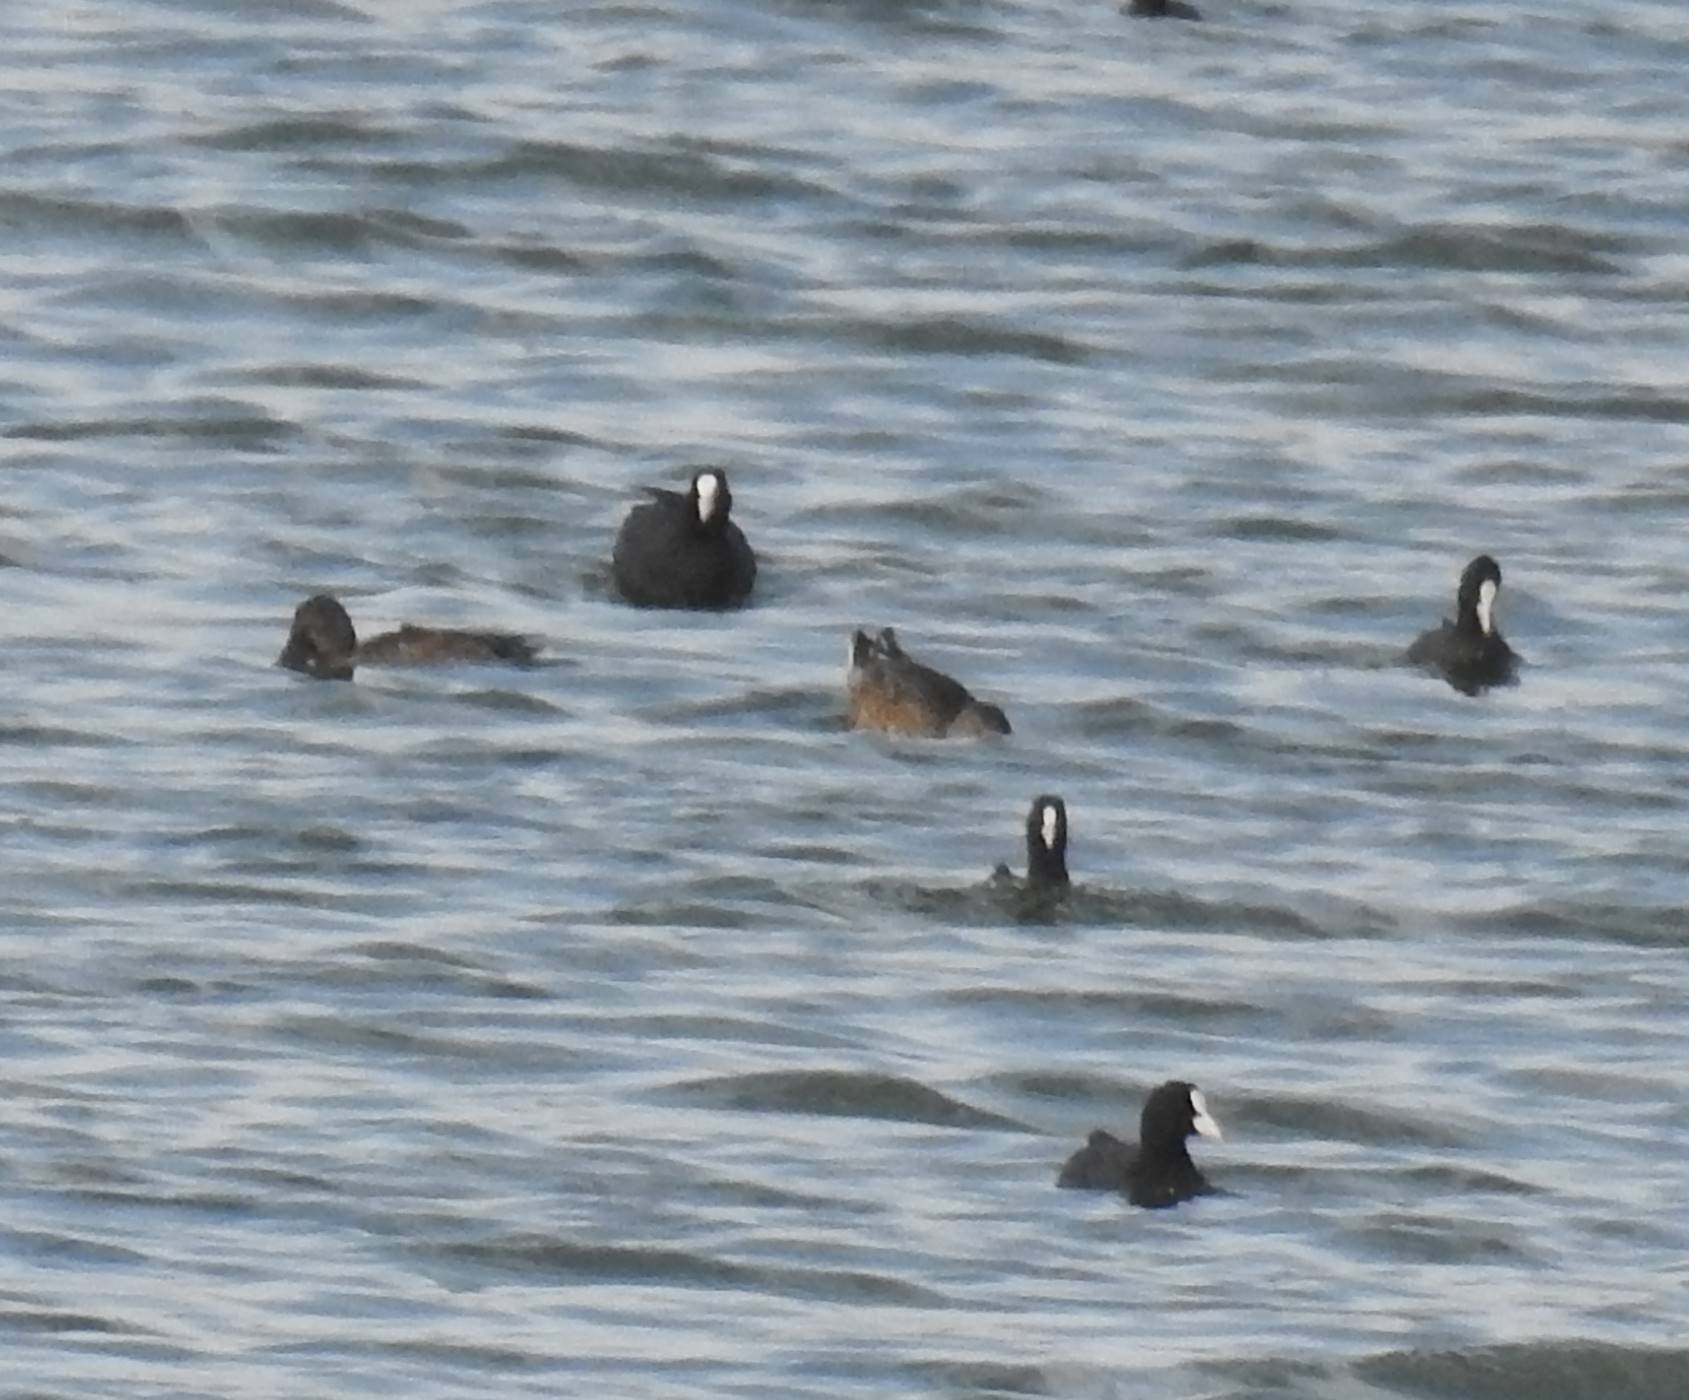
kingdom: Animalia
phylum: Chordata
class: Aves
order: Gruiformes
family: Rallidae
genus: Fulica
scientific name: Fulica atra
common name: Eurasian coot
